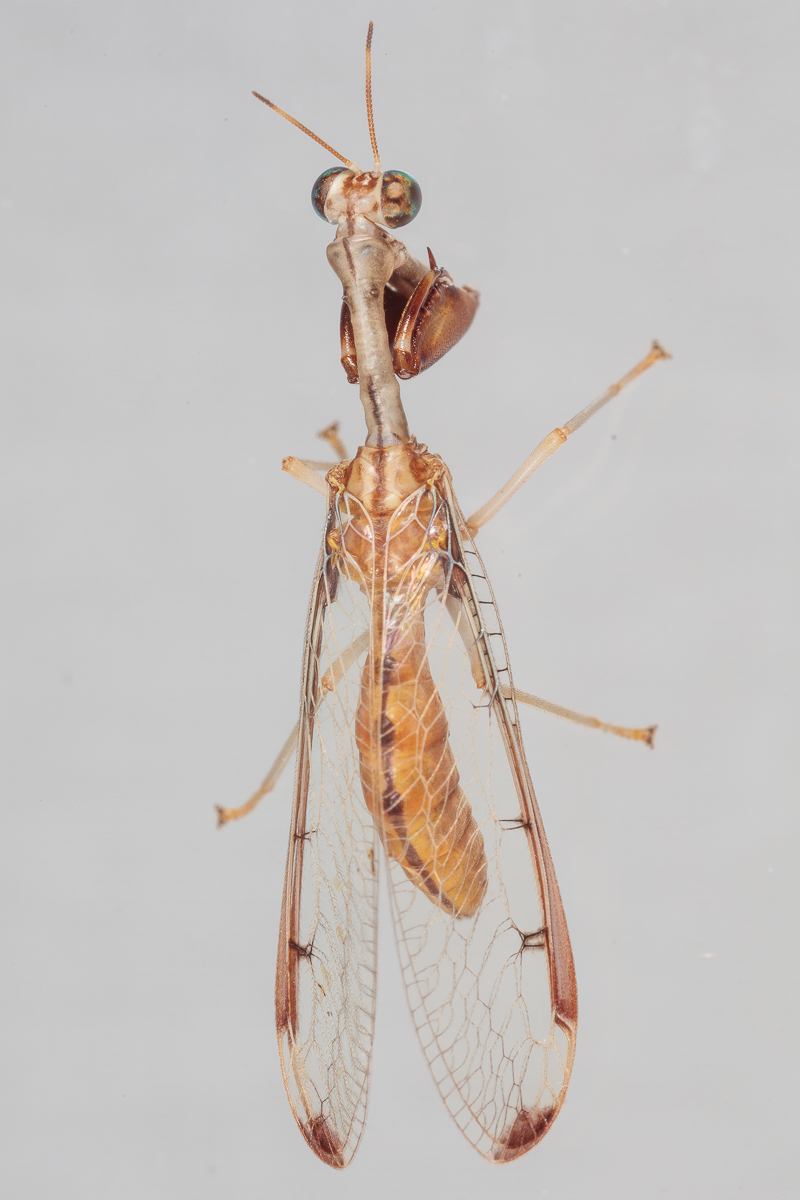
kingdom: Animalia
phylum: Arthropoda
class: Insecta
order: Neuroptera
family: Mantispidae
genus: Dicromantispa
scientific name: Dicromantispa interrupta
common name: Four-spotted mantidfly
